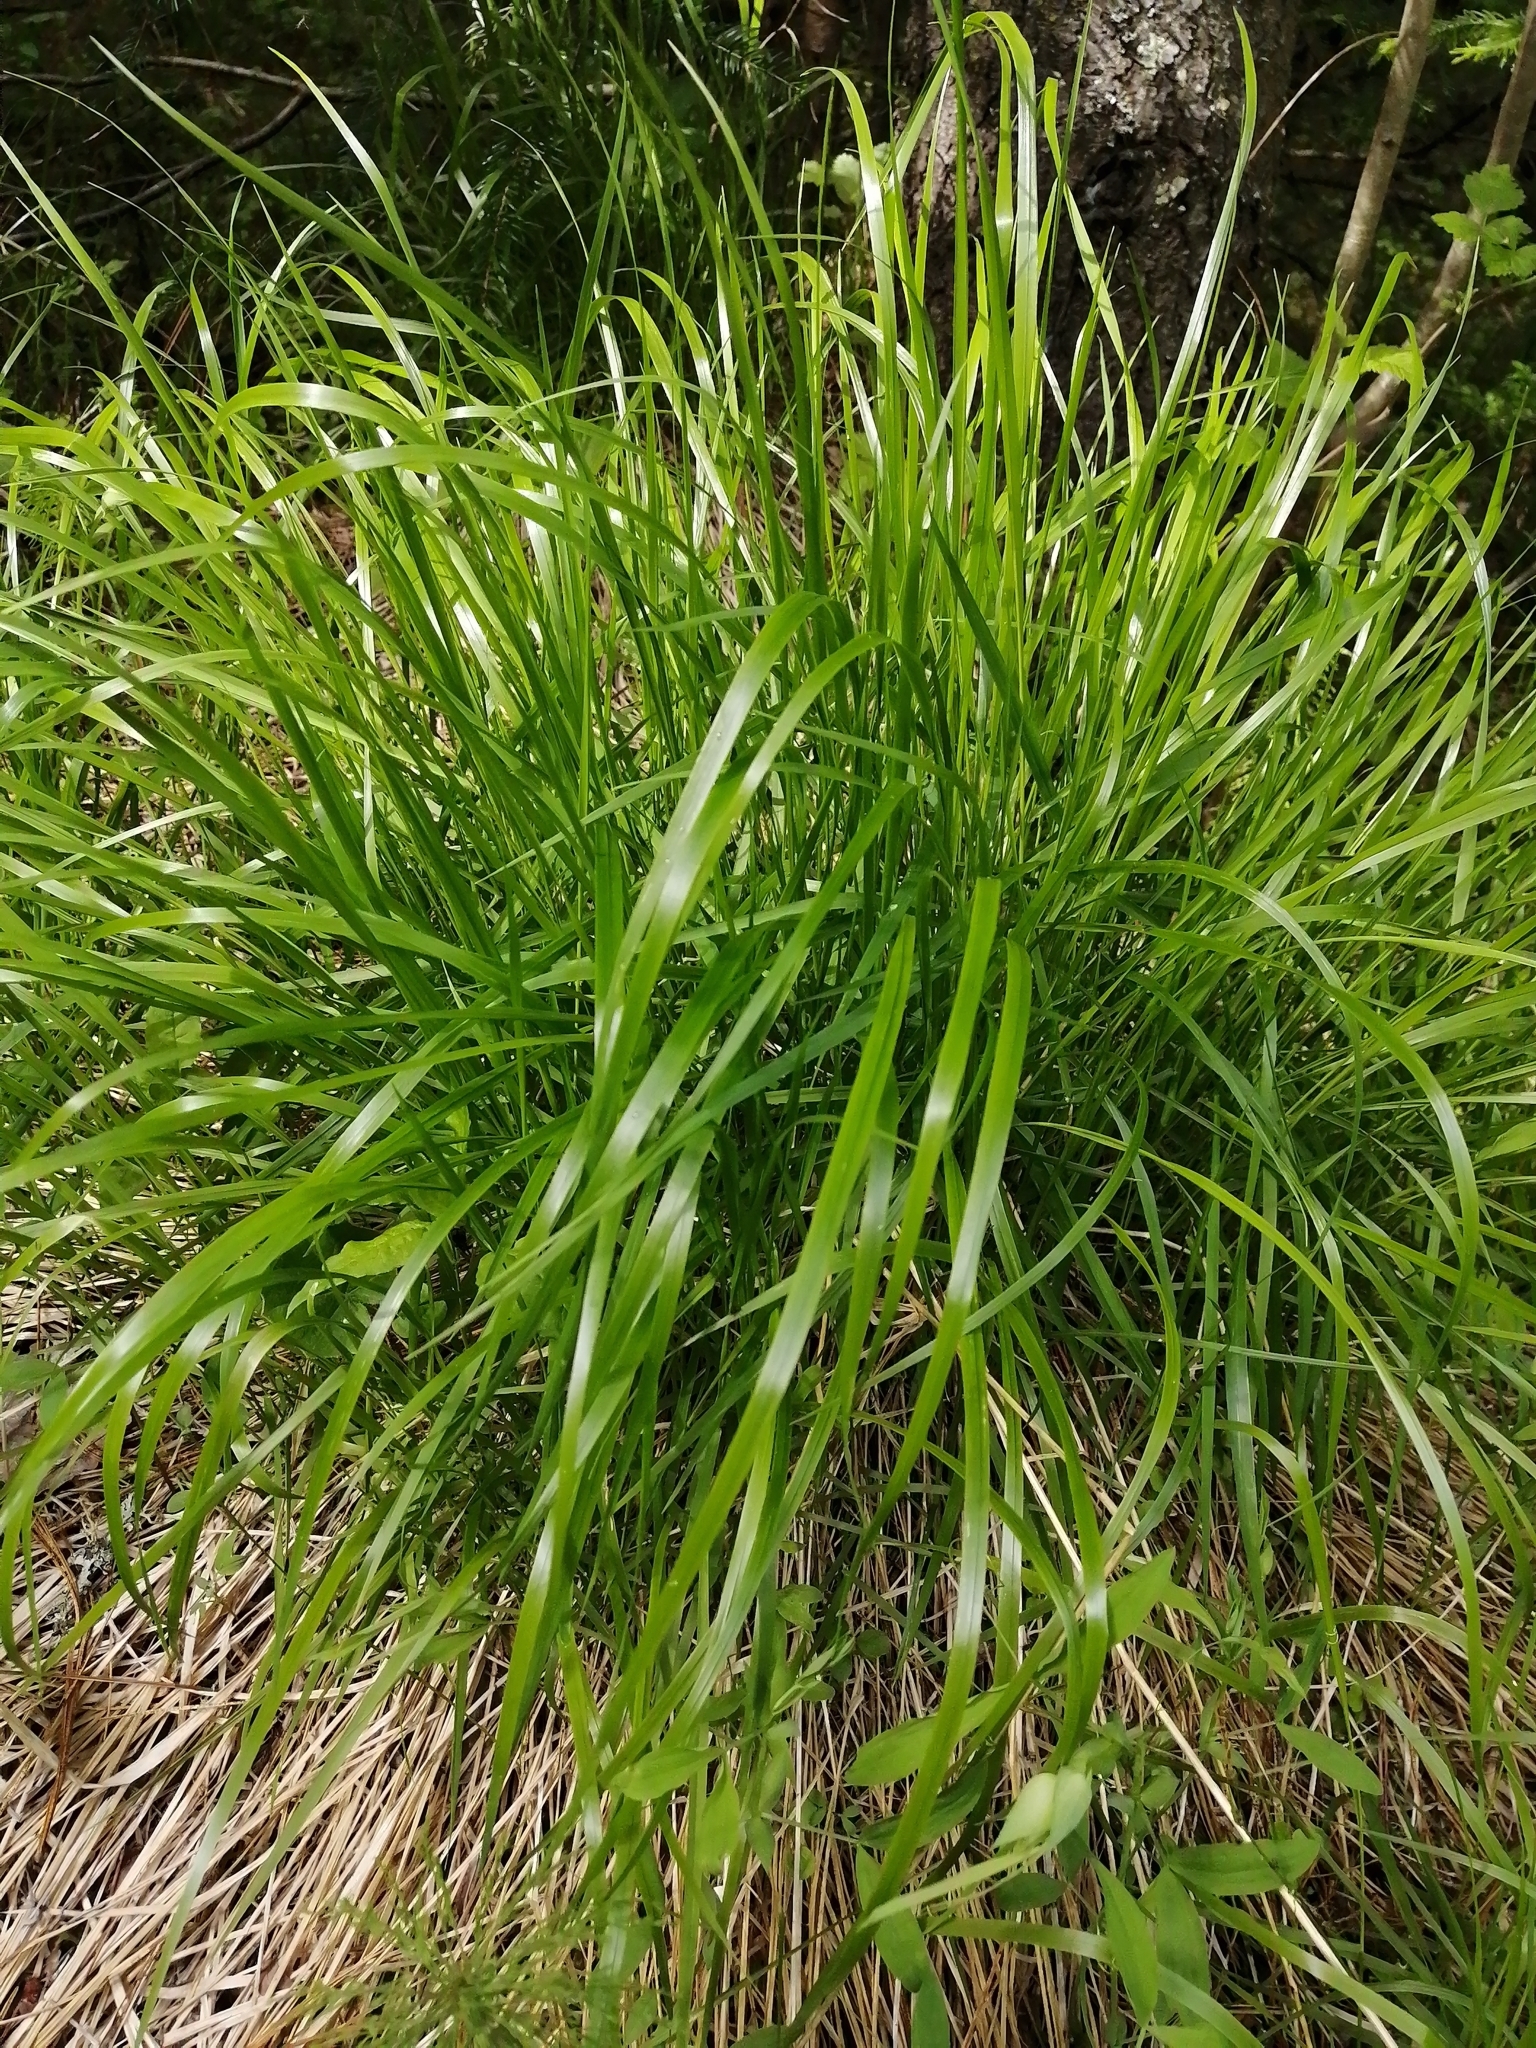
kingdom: Plantae
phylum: Tracheophyta
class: Liliopsida
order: Poales
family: Poaceae
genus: Calamagrostis
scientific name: Calamagrostis arundinacea
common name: Metskastik
